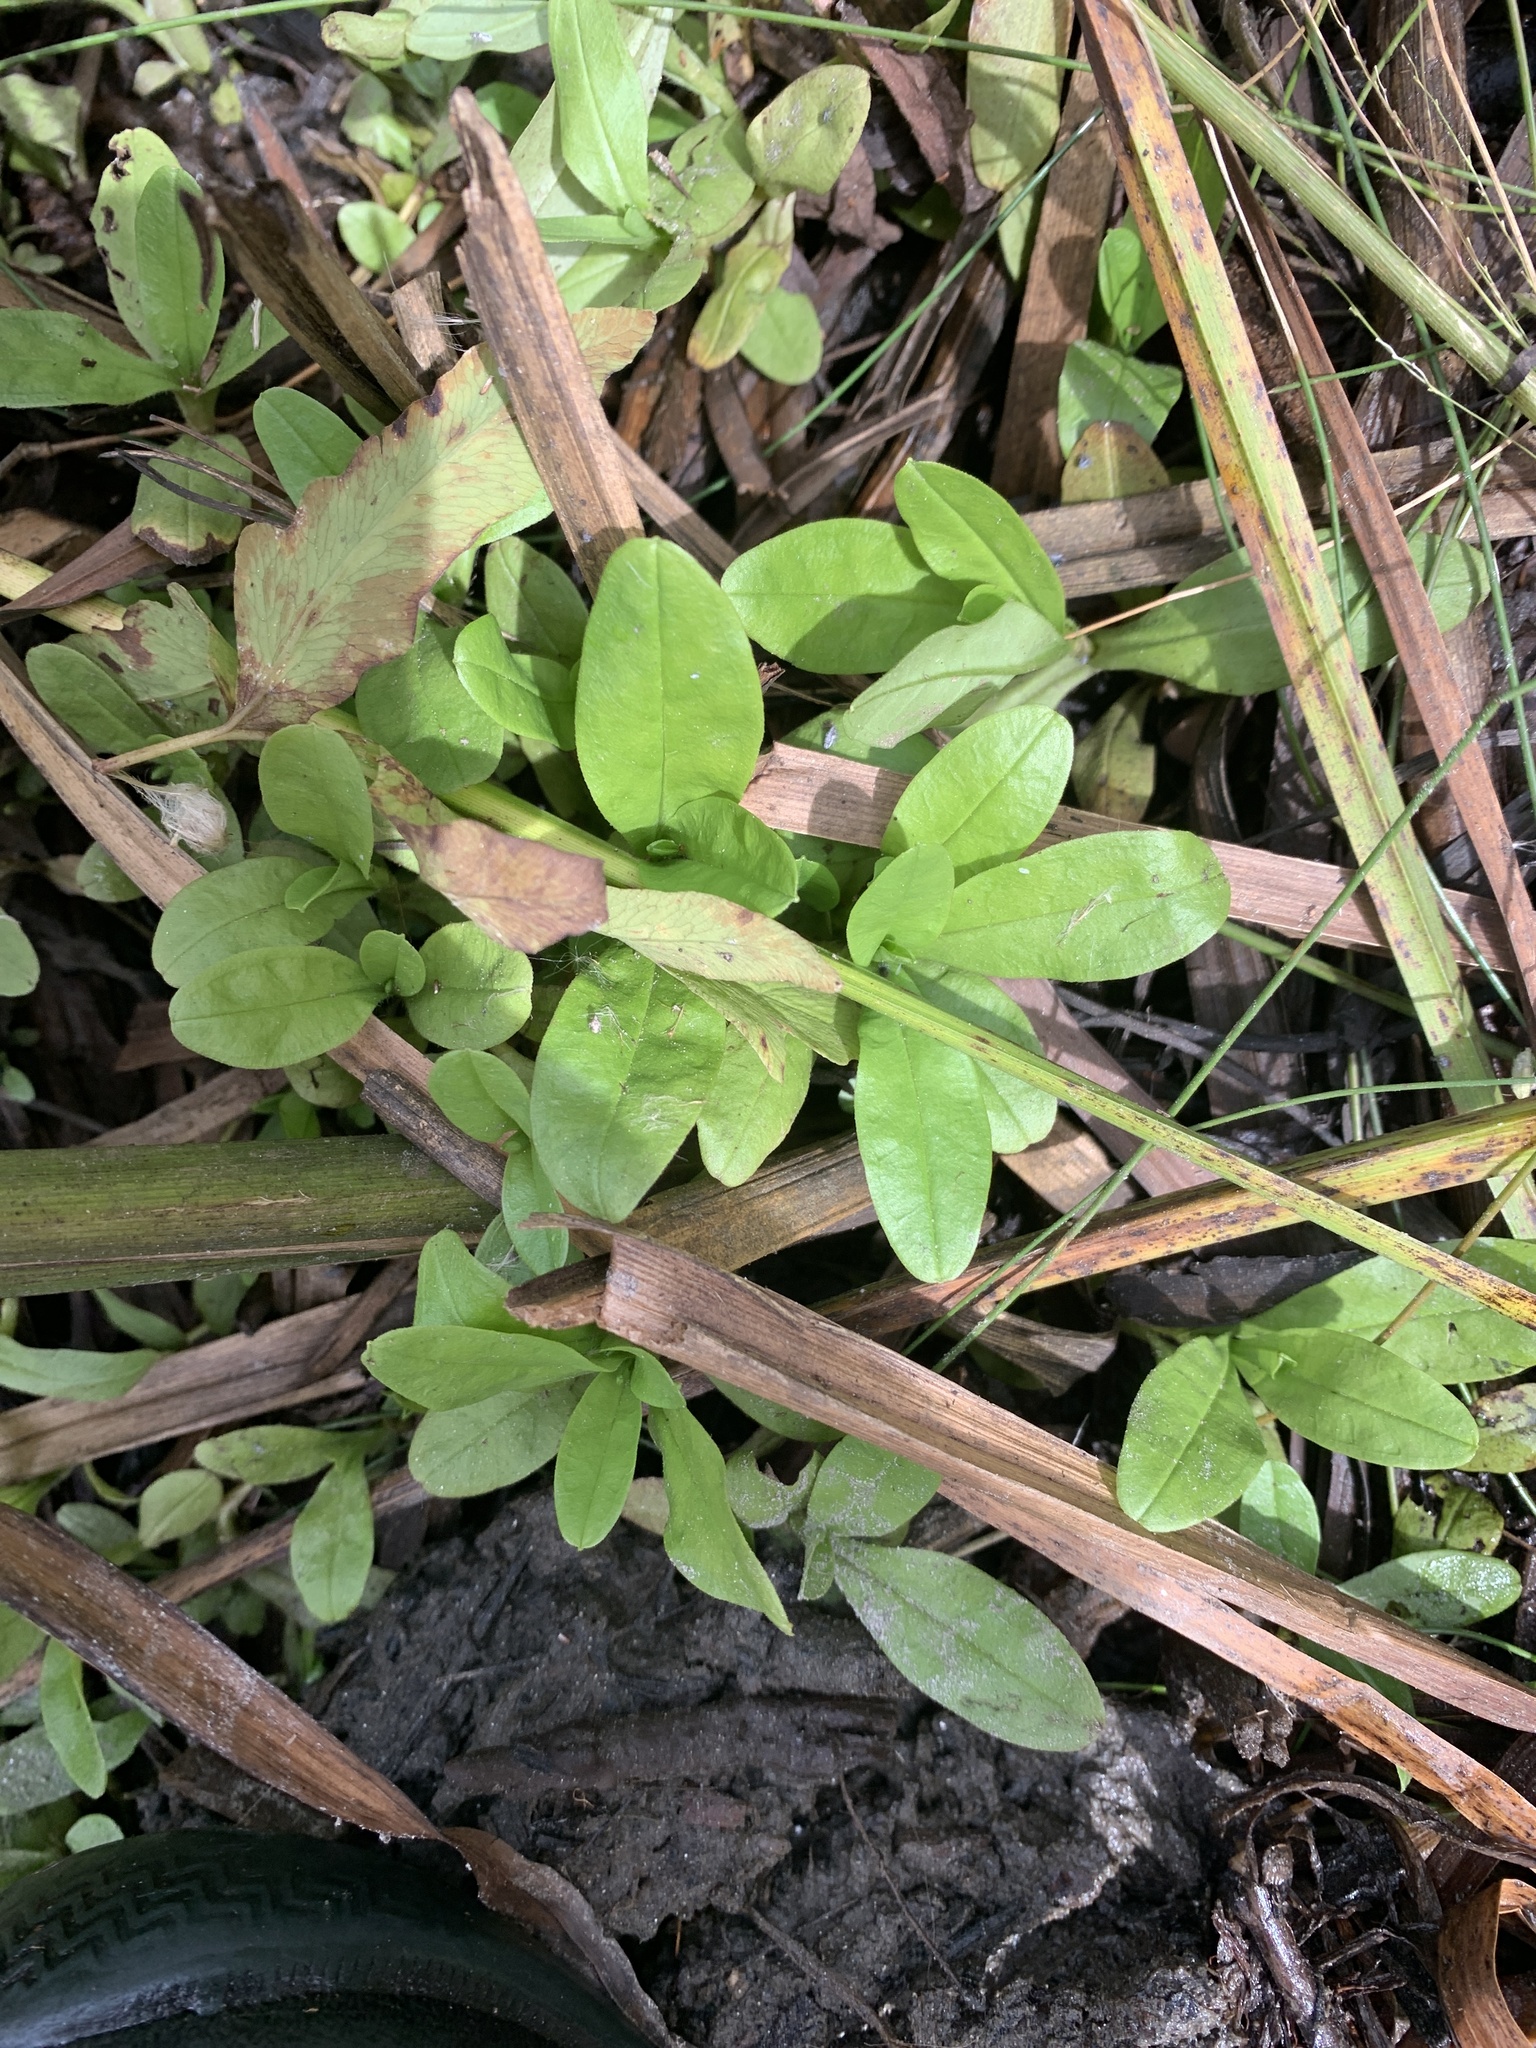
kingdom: Plantae
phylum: Tracheophyta
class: Magnoliopsida
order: Boraginales
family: Boraginaceae
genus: Myosotis
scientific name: Myosotis scorpioides
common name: Water forget-me-not
